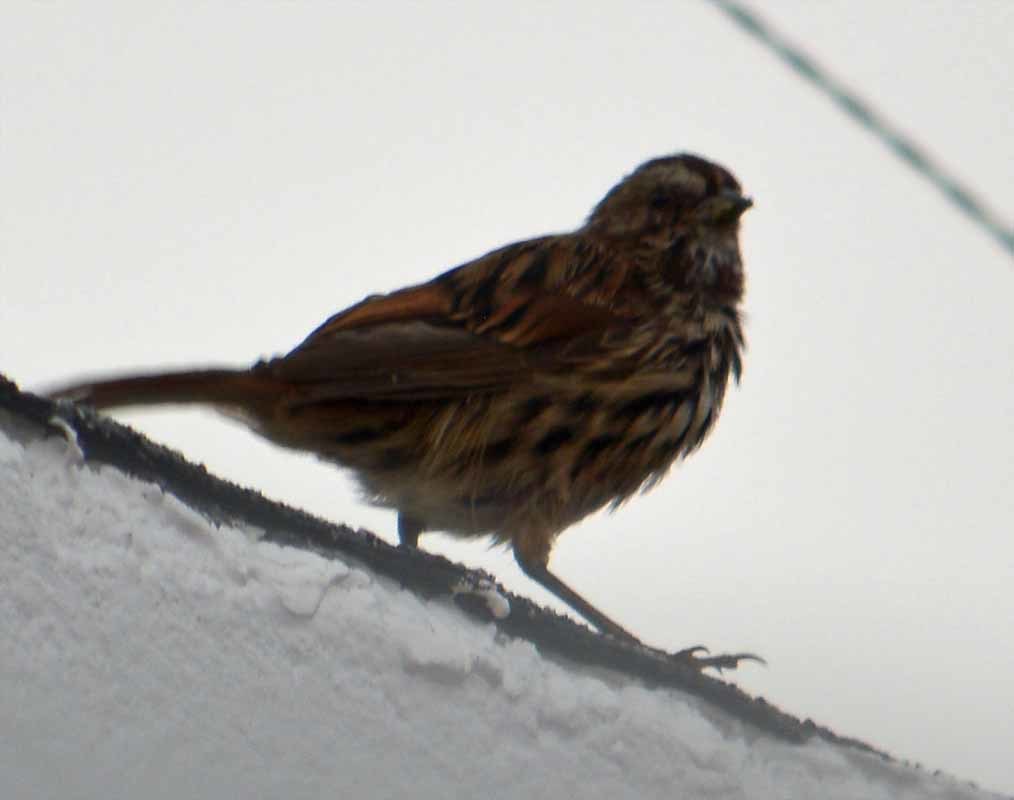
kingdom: Animalia
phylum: Chordata
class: Aves
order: Passeriformes
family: Passerellidae
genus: Melospiza
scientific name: Melospiza melodia
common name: Song sparrow
